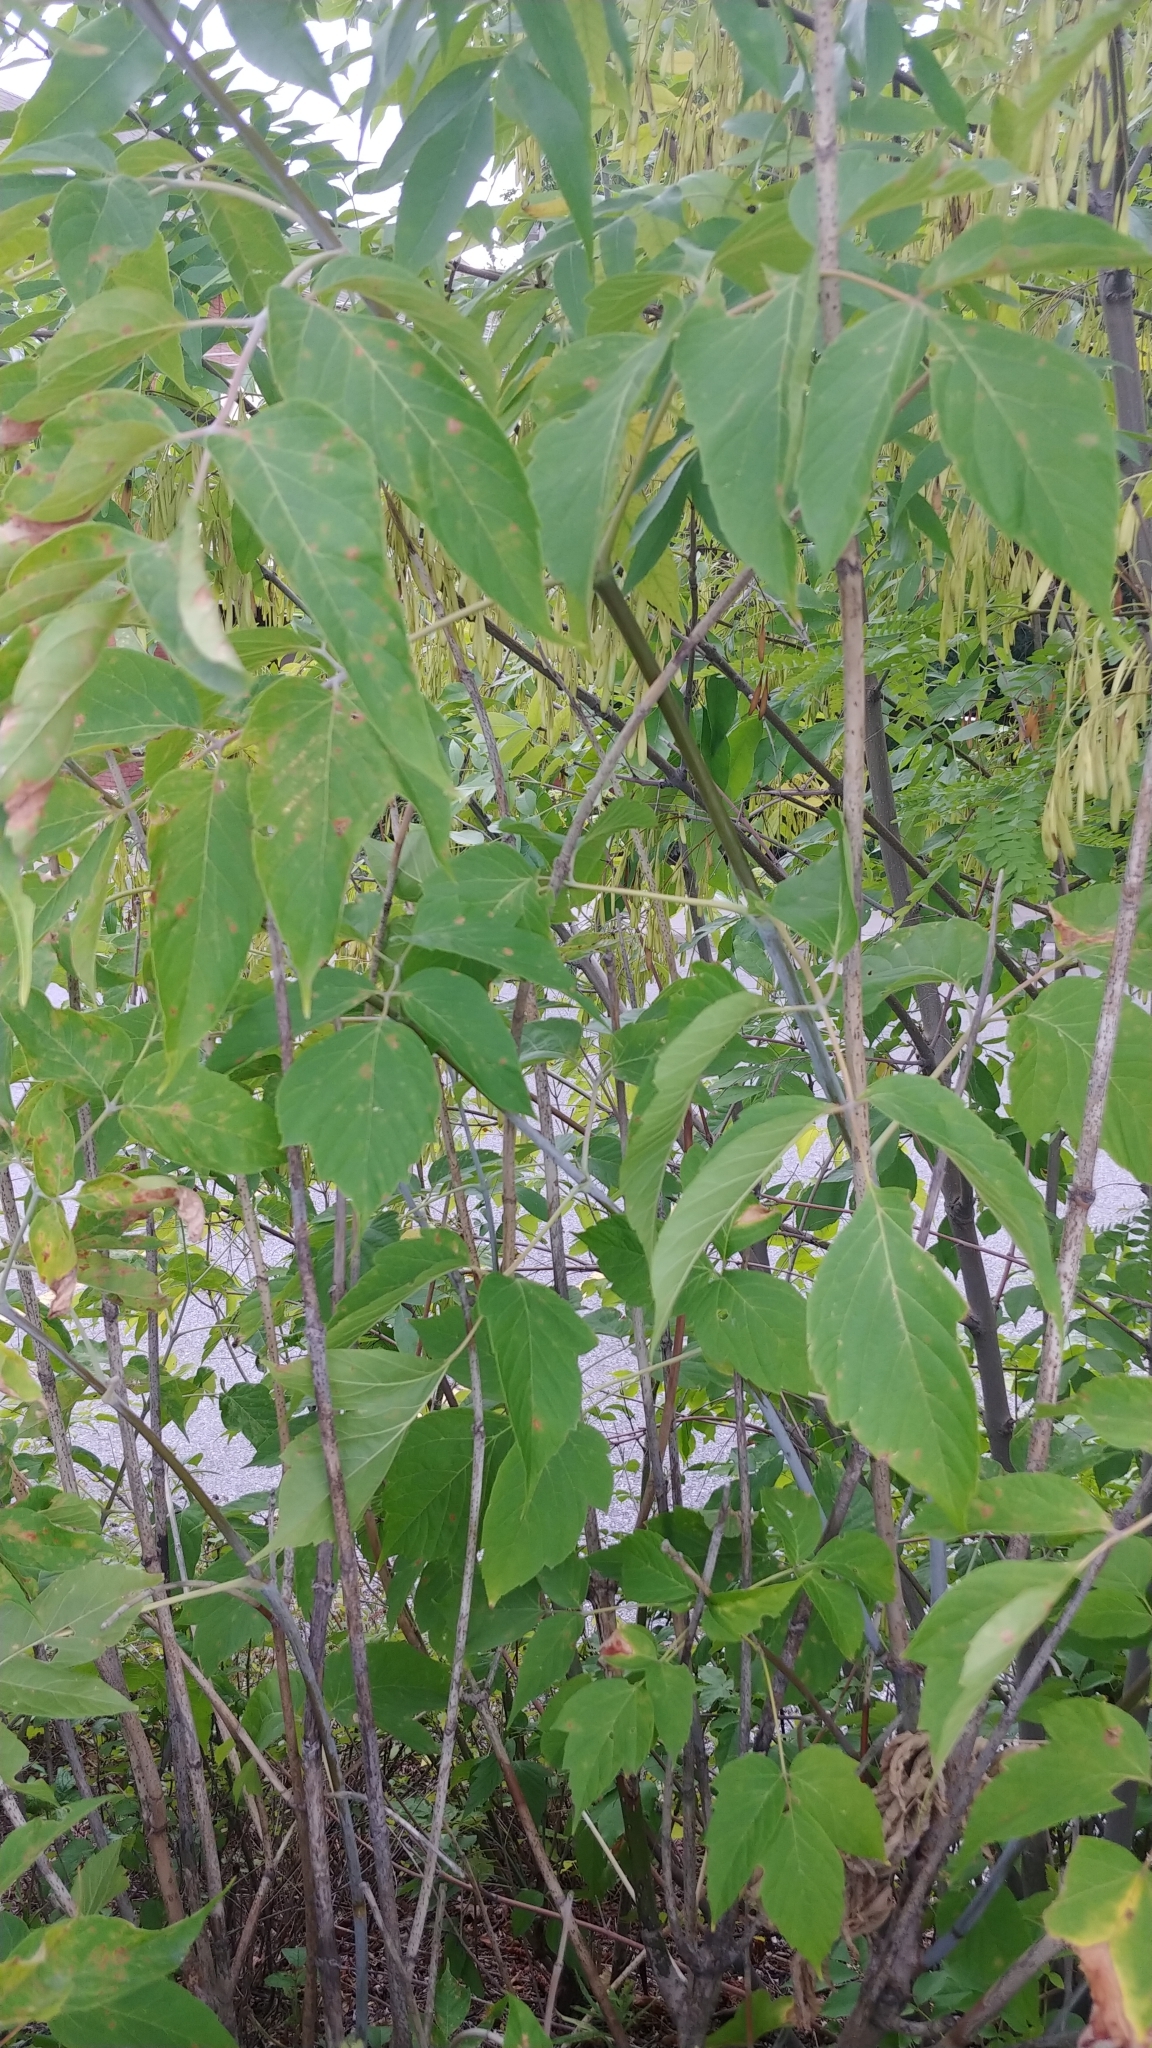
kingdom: Plantae
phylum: Tracheophyta
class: Magnoliopsida
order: Sapindales
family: Sapindaceae
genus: Acer
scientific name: Acer negundo
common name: Ashleaf maple
